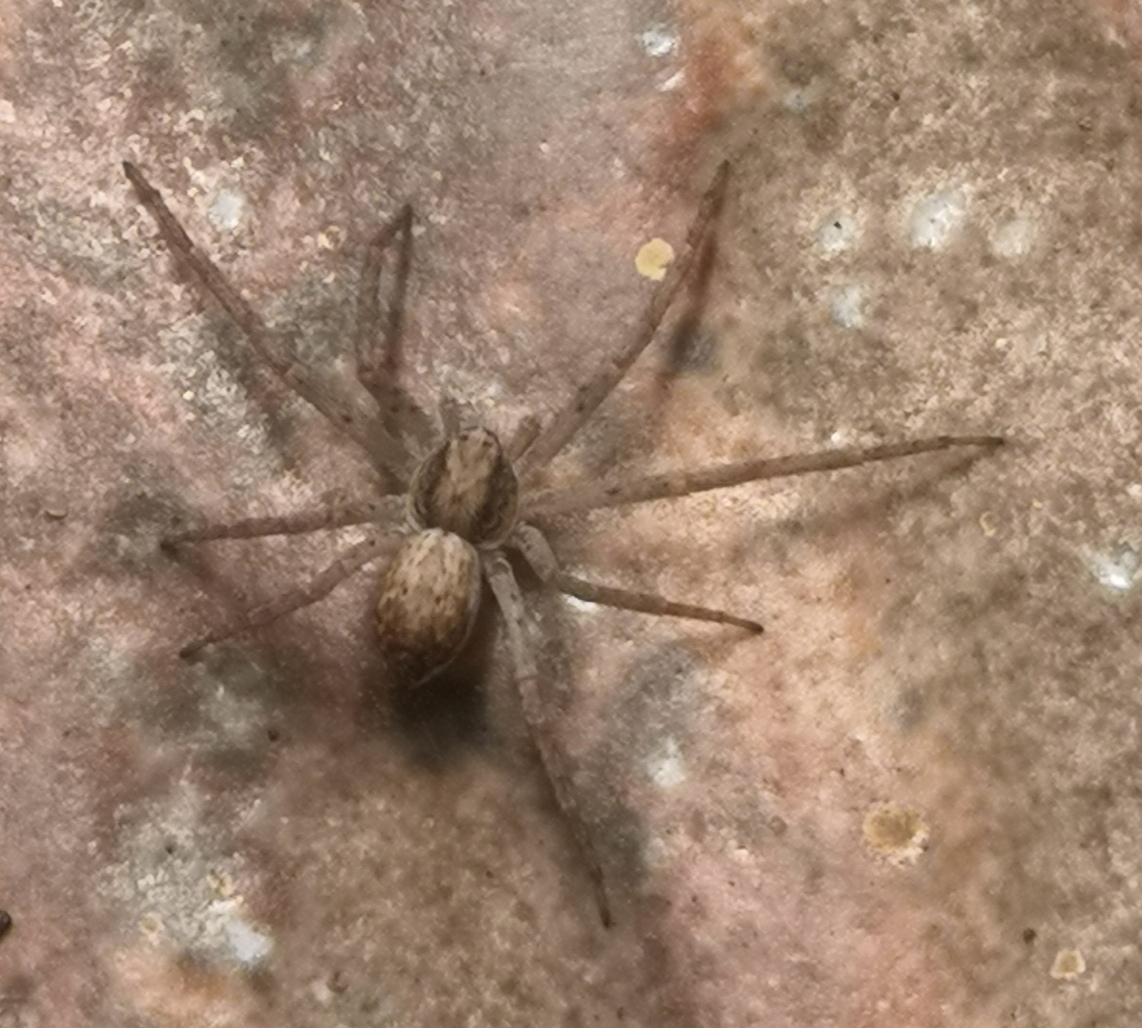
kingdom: Animalia
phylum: Arthropoda
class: Arachnida
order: Araneae
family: Philodromidae
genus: Philodromus
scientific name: Philodromus dispar
